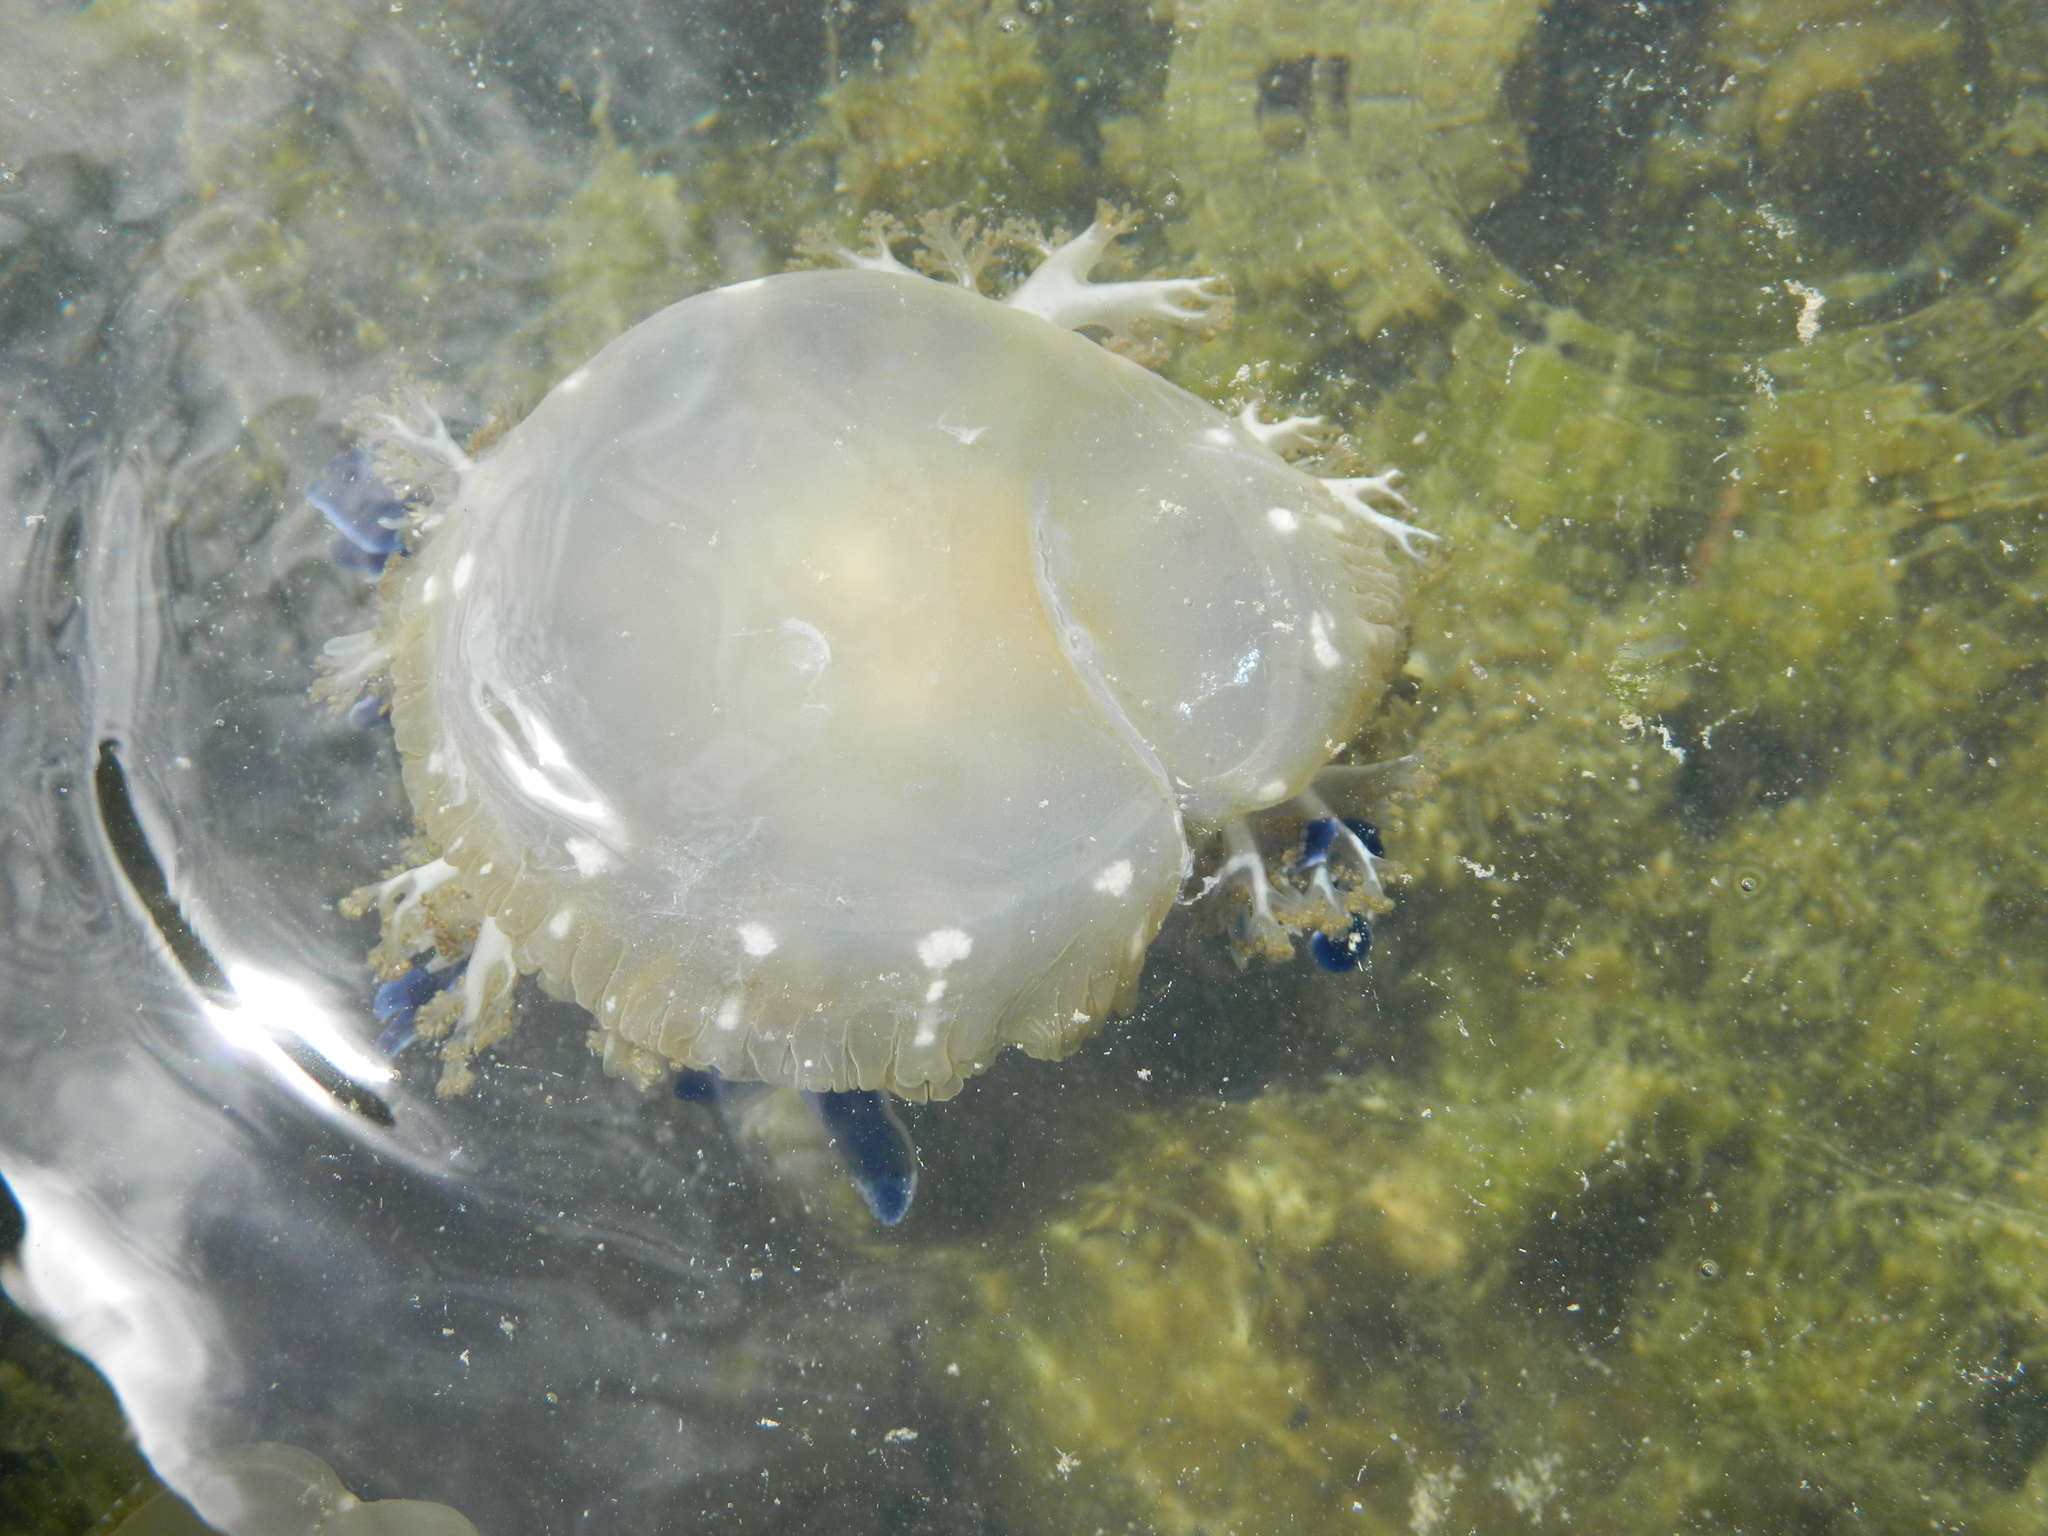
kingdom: Animalia
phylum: Cnidaria
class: Scyphozoa
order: Rhizostomeae
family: Cassiopeidae
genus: Cassiopea
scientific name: Cassiopea andromeda
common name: Upside-down jellyfish
